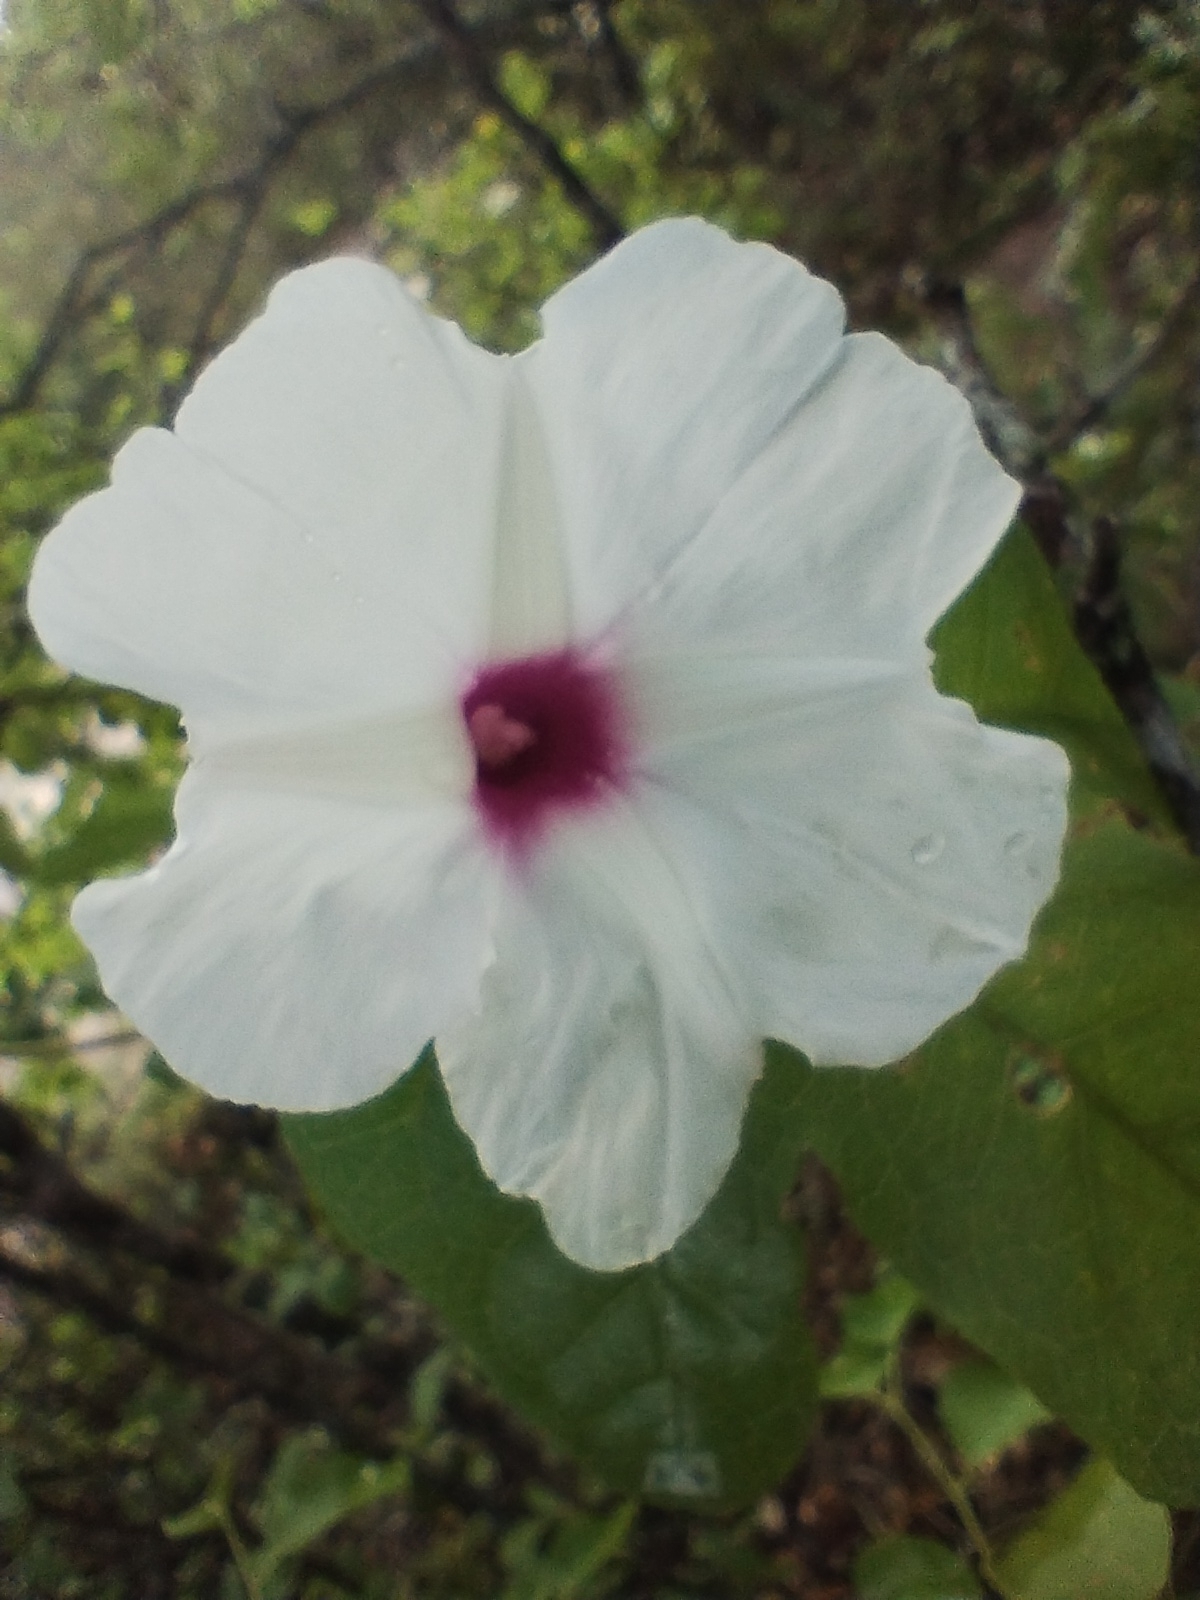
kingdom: Plantae
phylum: Tracheophyta
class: Magnoliopsida
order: Solanales
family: Convolvulaceae
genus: Ipomoea
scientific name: Ipomoea bonariensis
